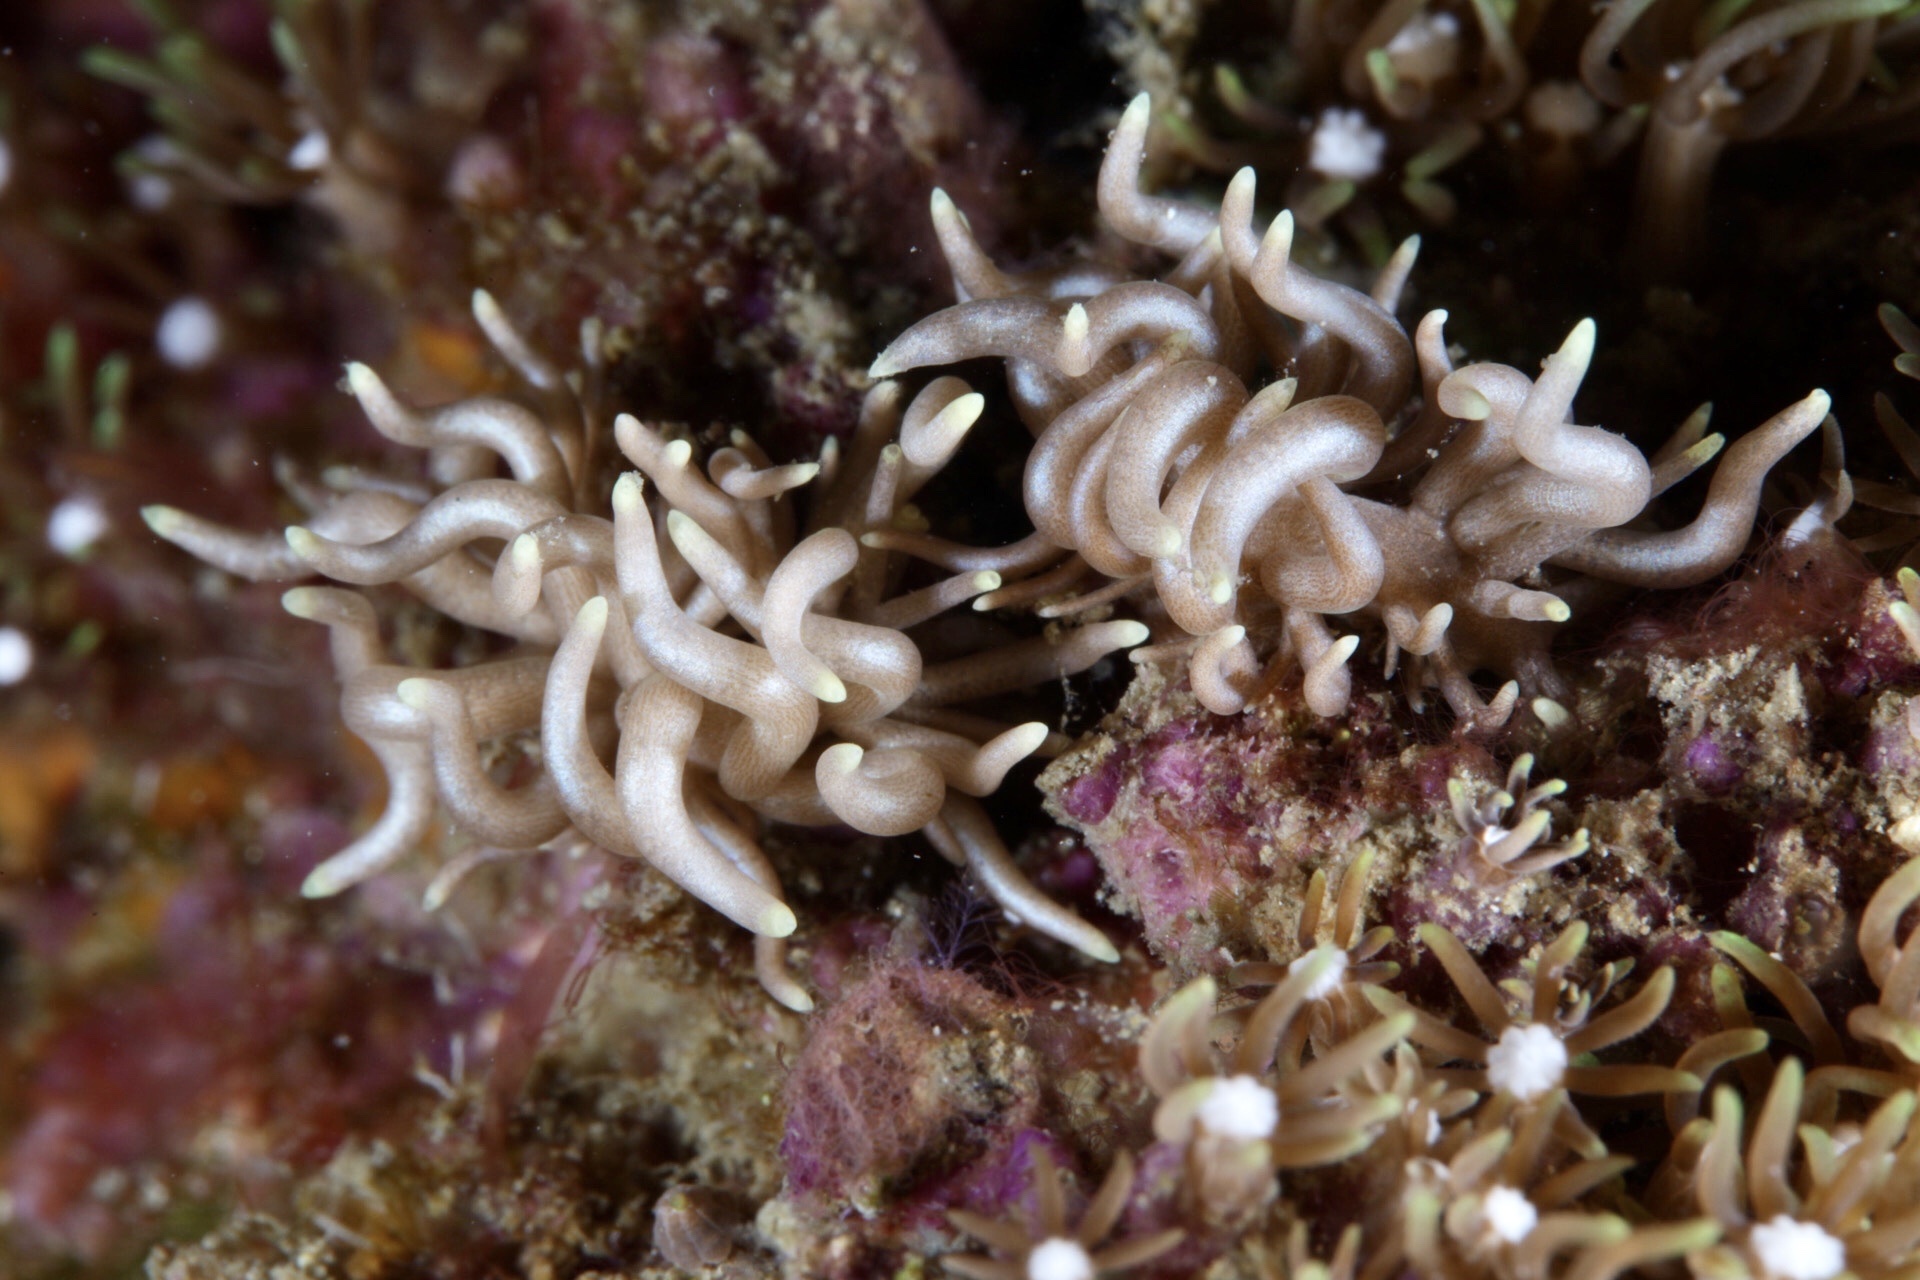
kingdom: Animalia
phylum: Mollusca
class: Gastropoda
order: Nudibranchia
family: Myrrhinidae
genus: Phyllodesmium
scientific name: Phyllodesmium briareum
